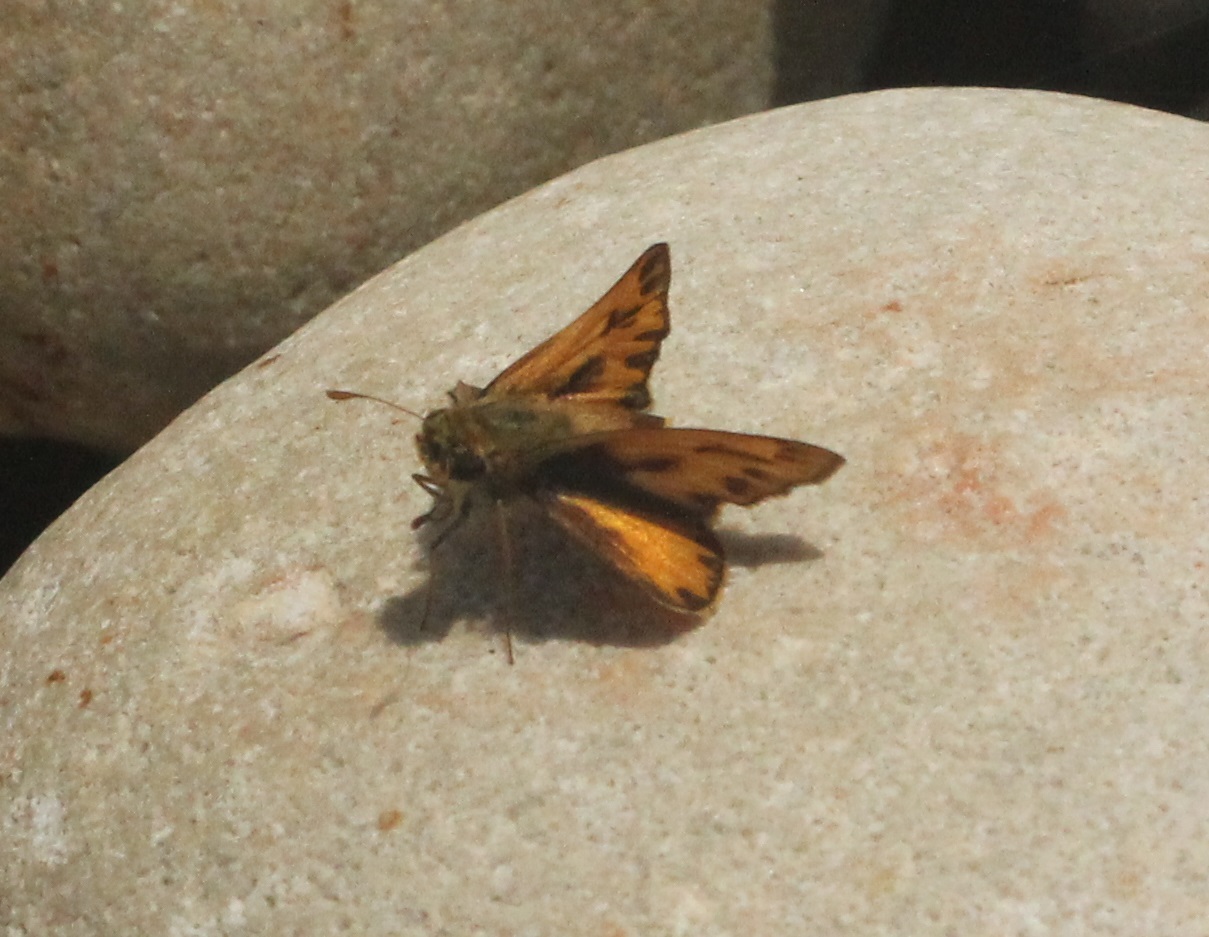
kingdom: Animalia
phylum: Arthropoda
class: Insecta
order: Lepidoptera
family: Hesperiidae
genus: Hylephila
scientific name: Hylephila phyleus
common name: Fiery skipper
